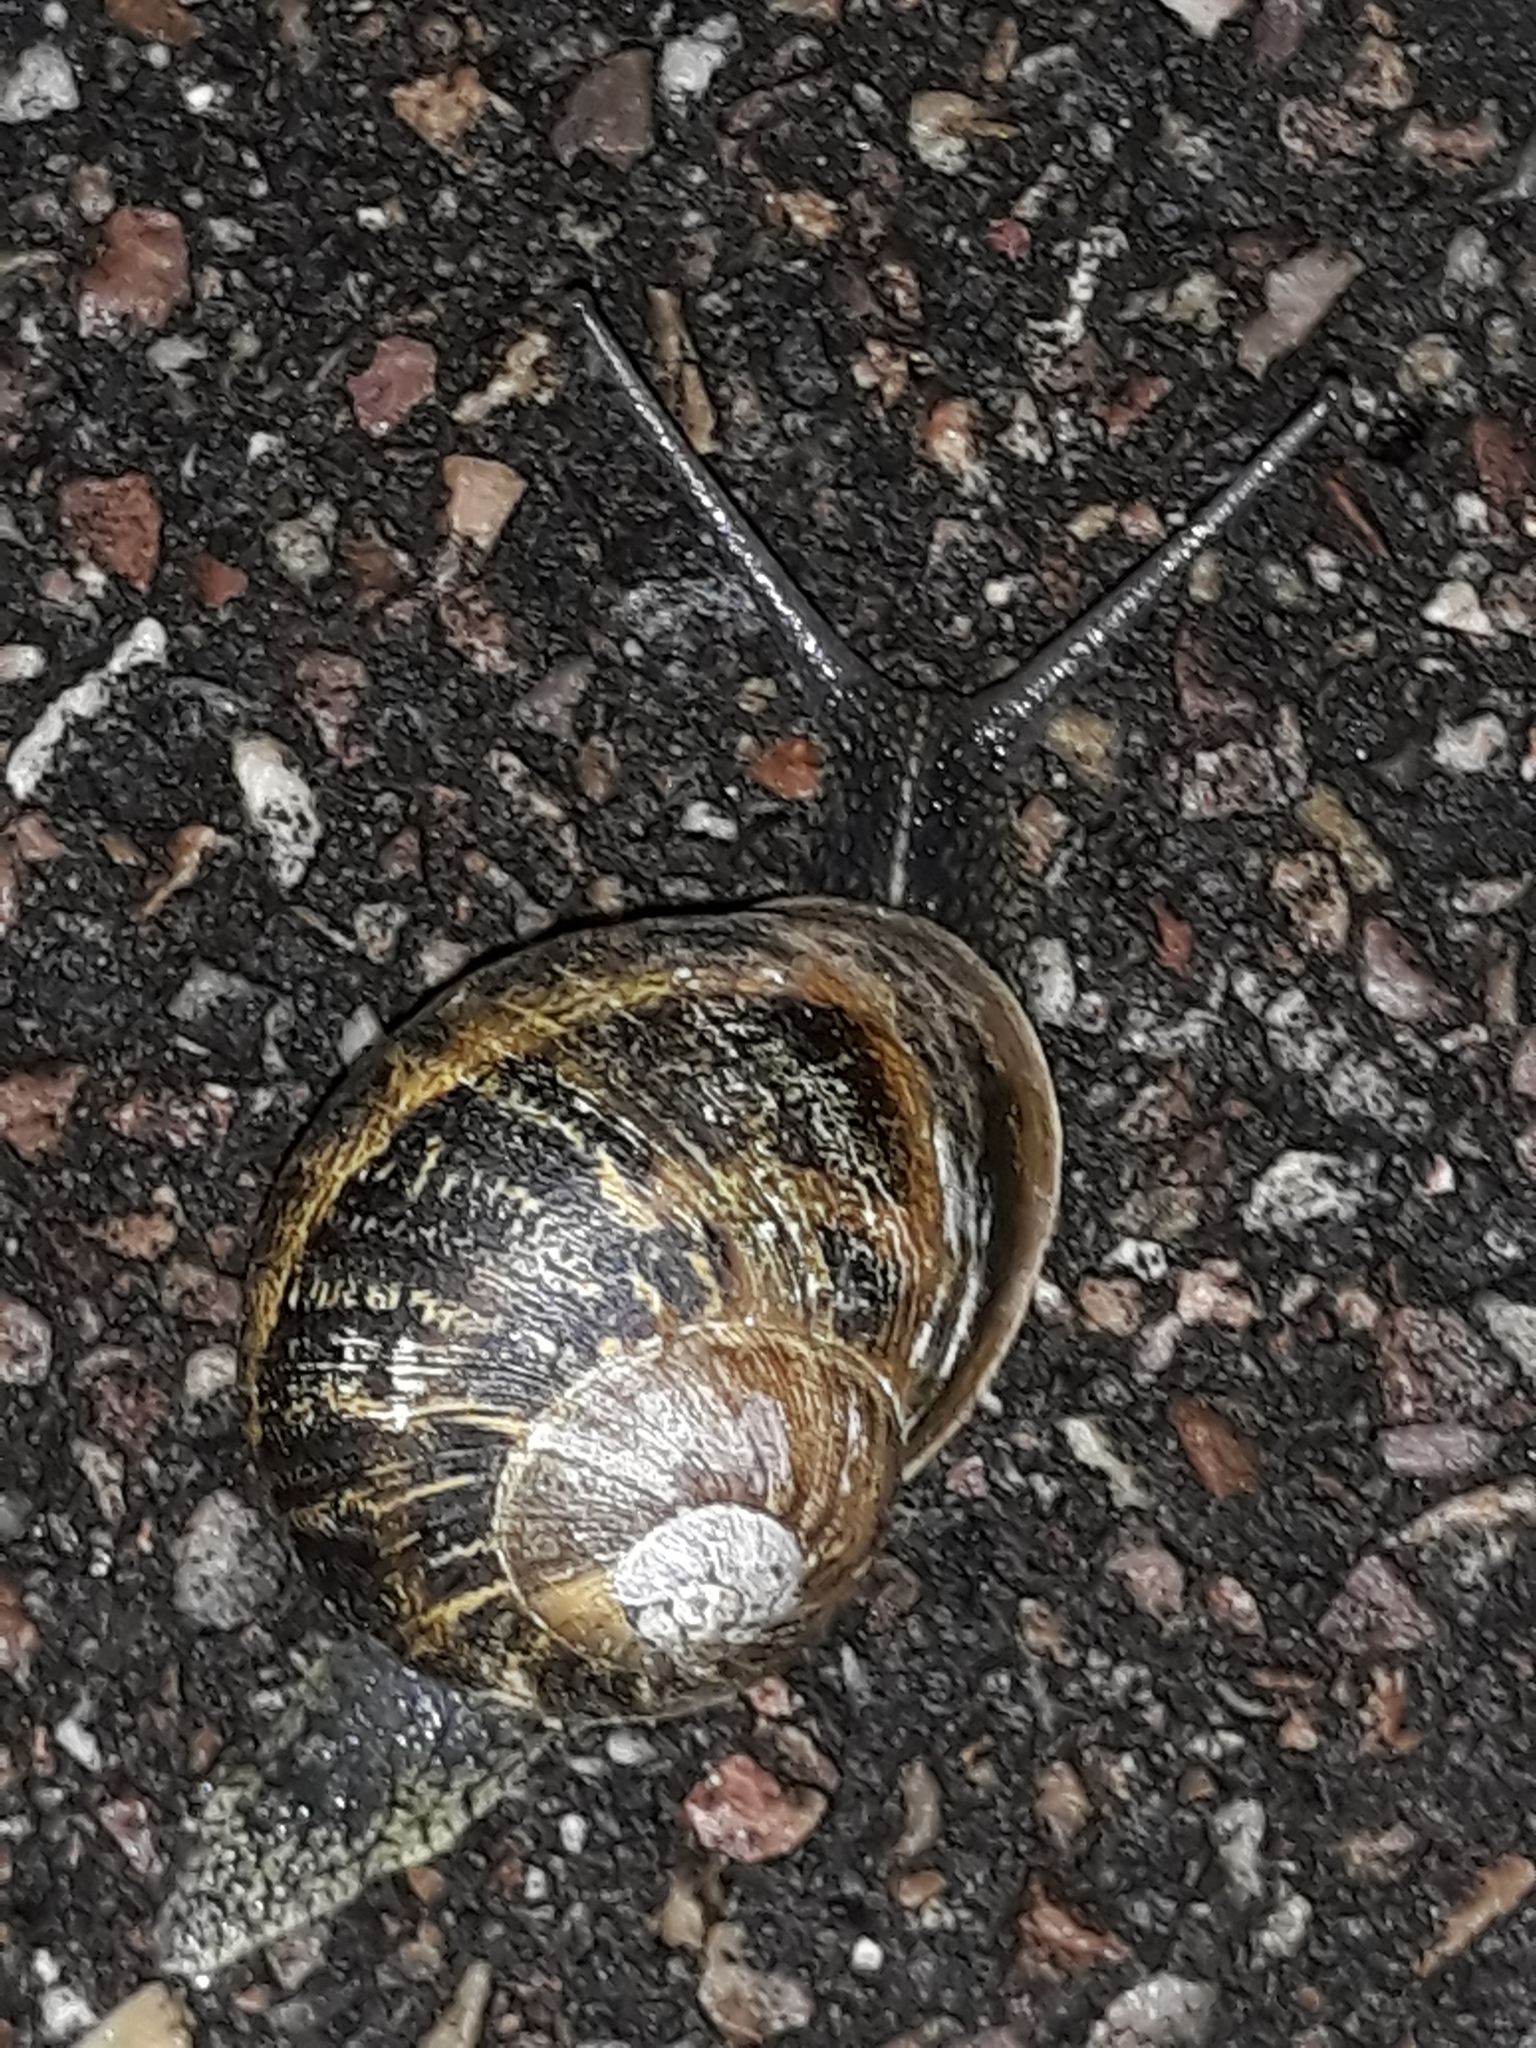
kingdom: Animalia
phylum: Mollusca
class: Gastropoda
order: Stylommatophora
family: Helicidae
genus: Cornu
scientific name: Cornu aspersum
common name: Brown garden snail
